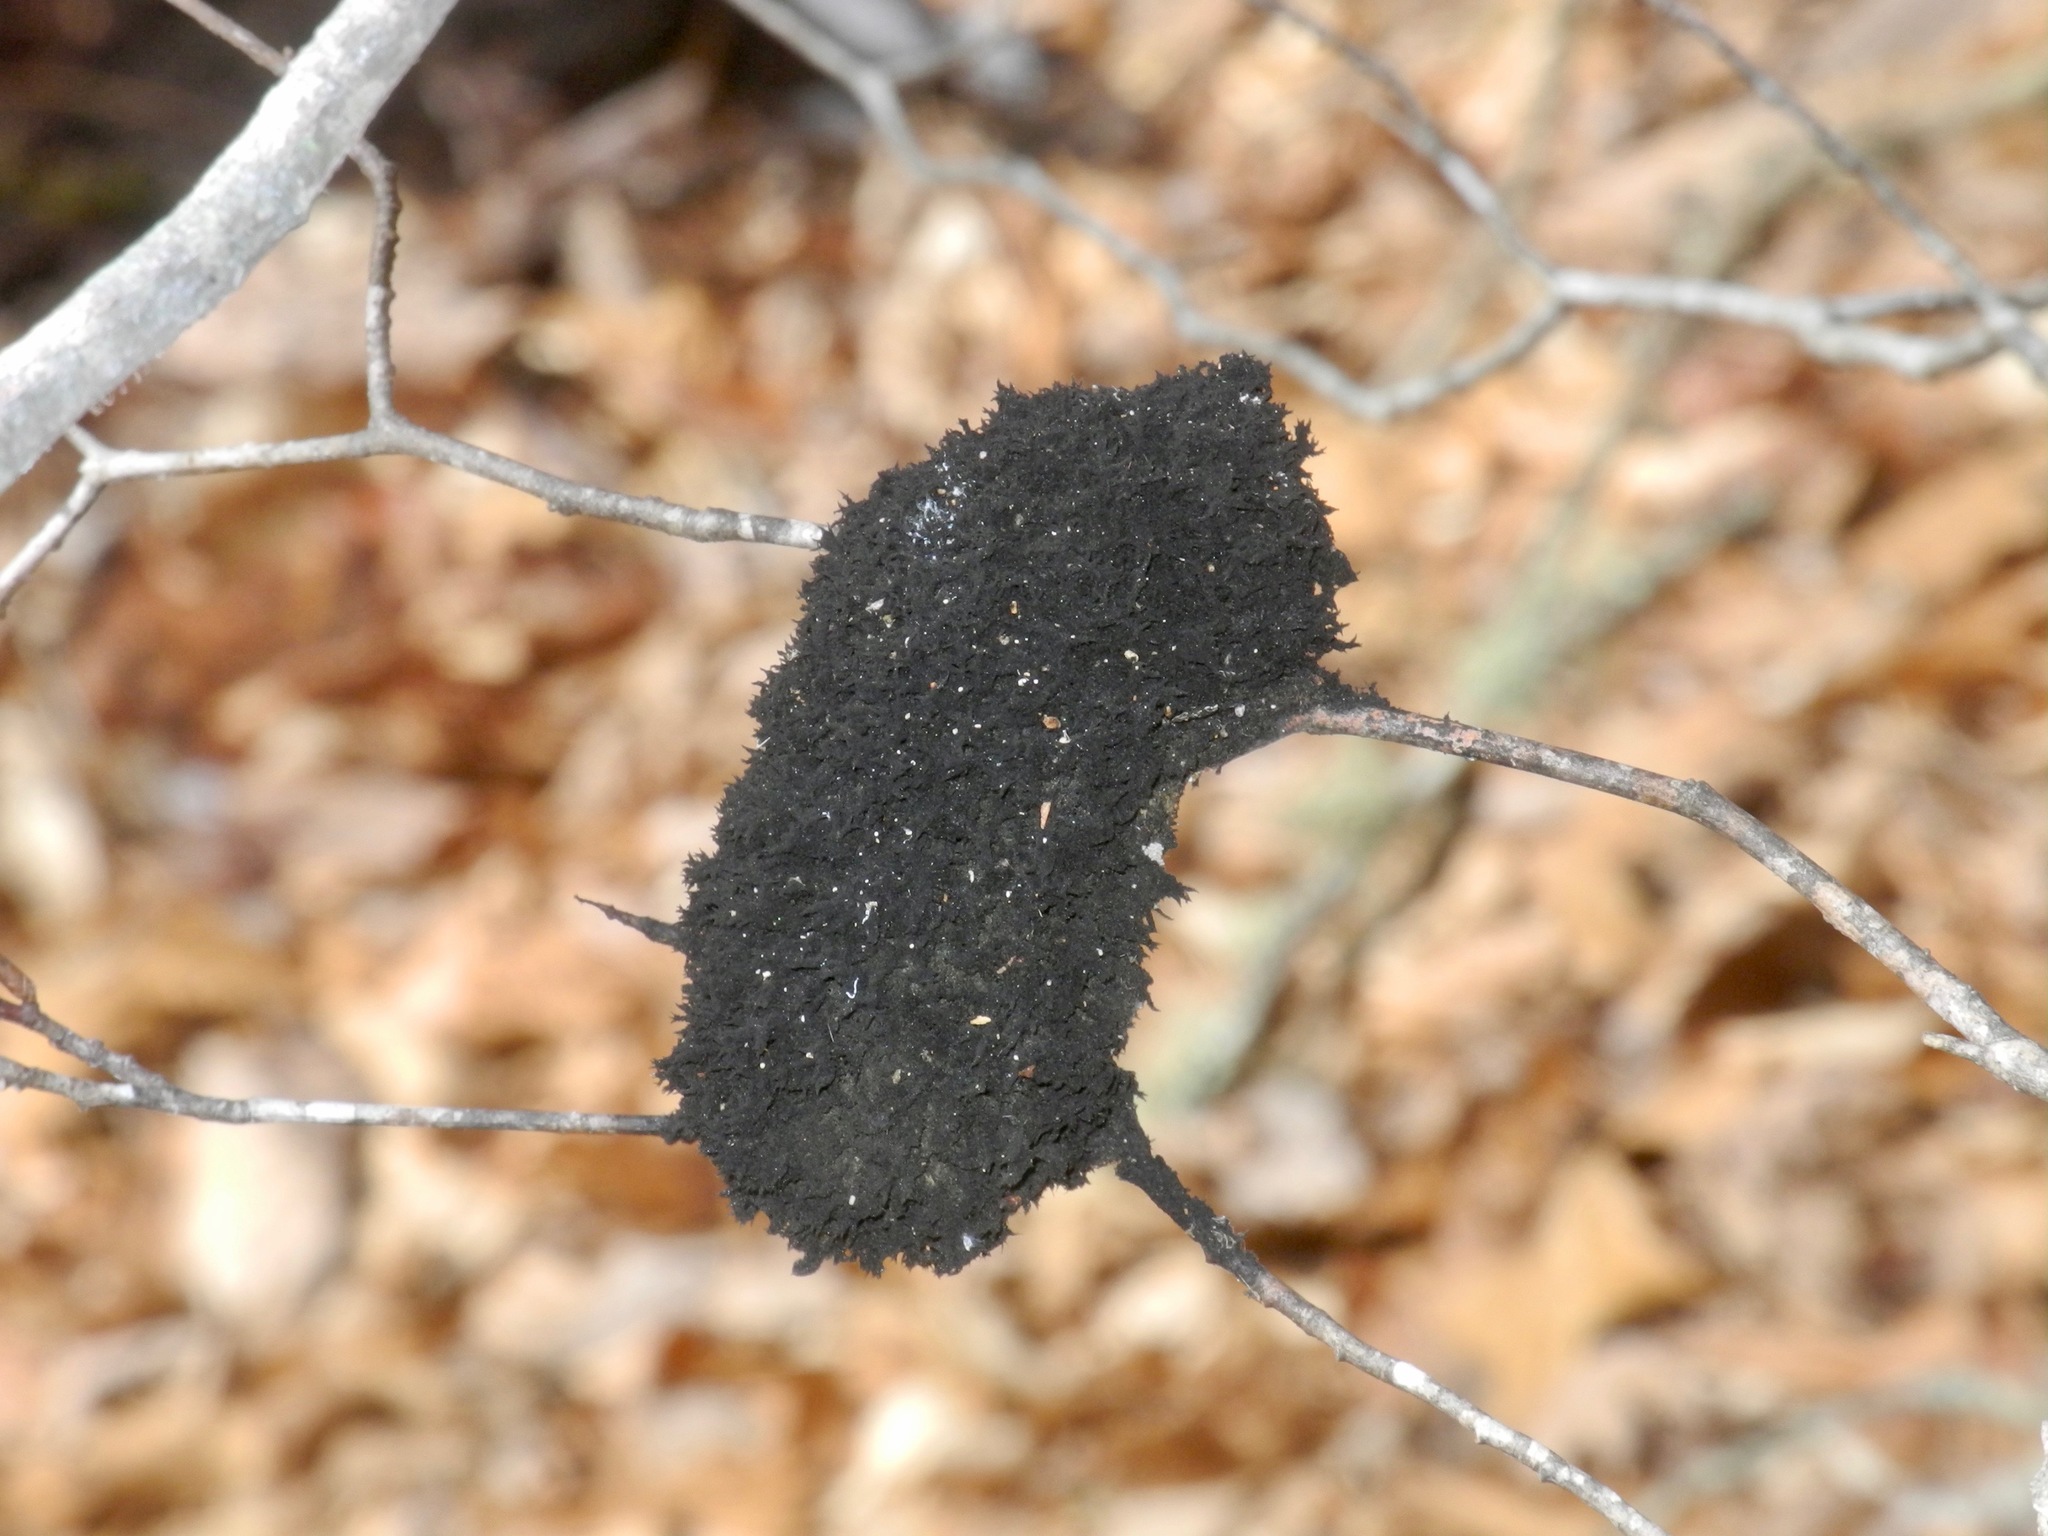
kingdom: Fungi
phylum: Ascomycota
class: Dothideomycetes
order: Capnodiales
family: Capnodiaceae
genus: Scorias
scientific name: Scorias spongiosa
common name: Black sooty mold
